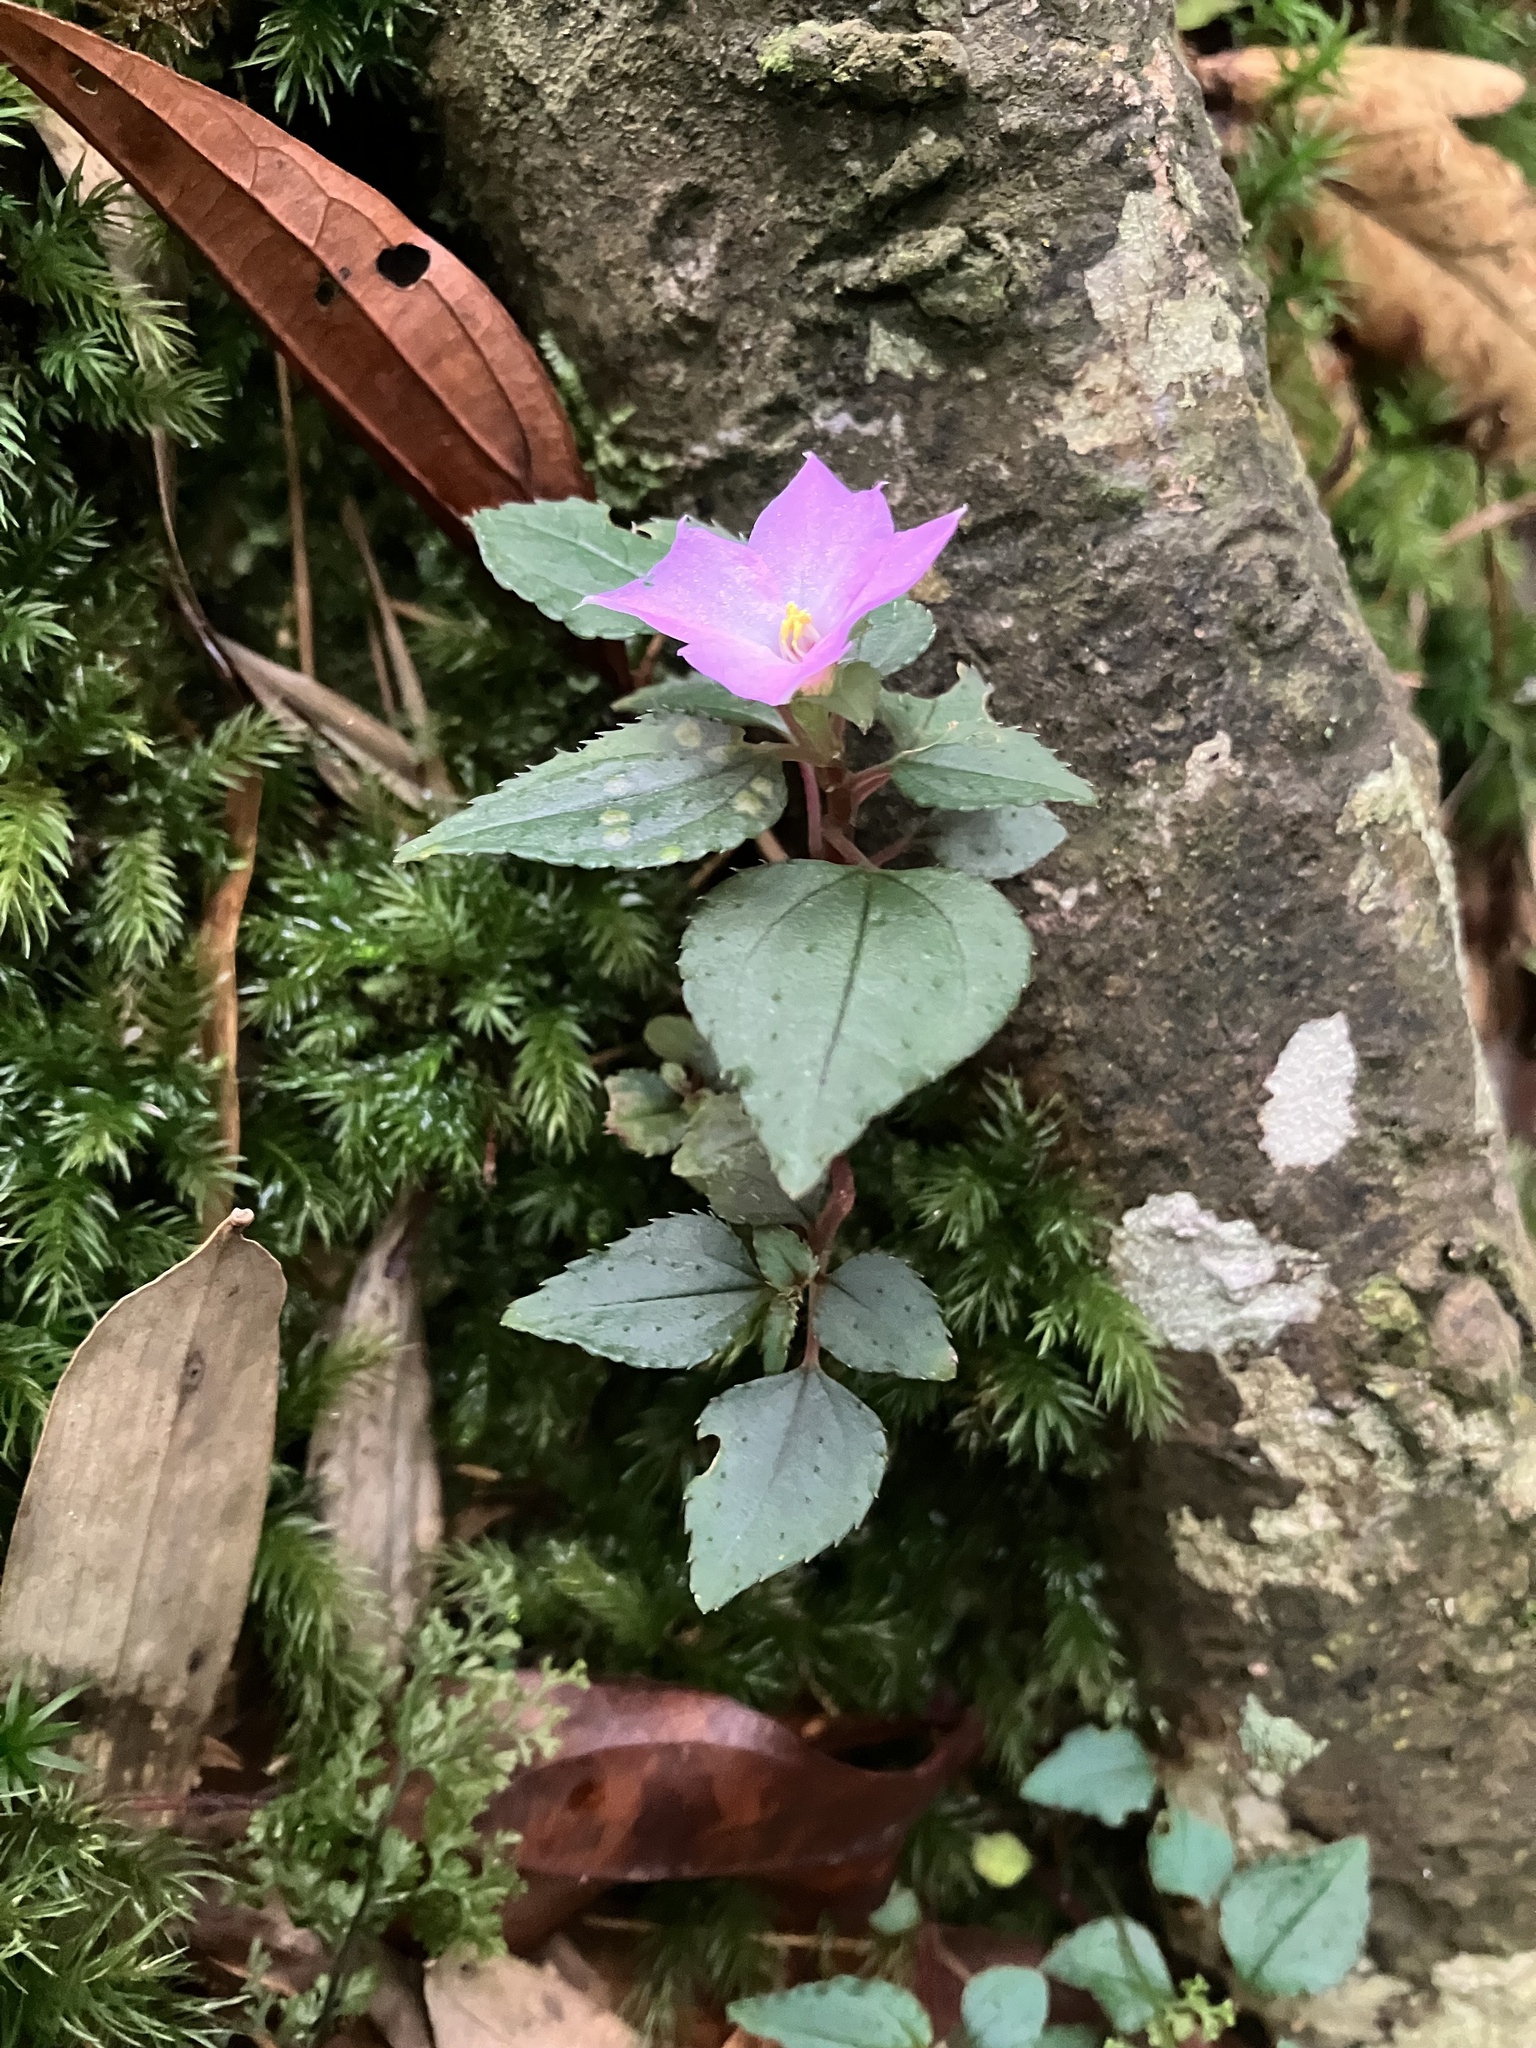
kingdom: Plantae
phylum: Tracheophyta
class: Magnoliopsida
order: Myrtales
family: Melastomataceae
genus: Sarcopyramis
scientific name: Sarcopyramis bodinieri
